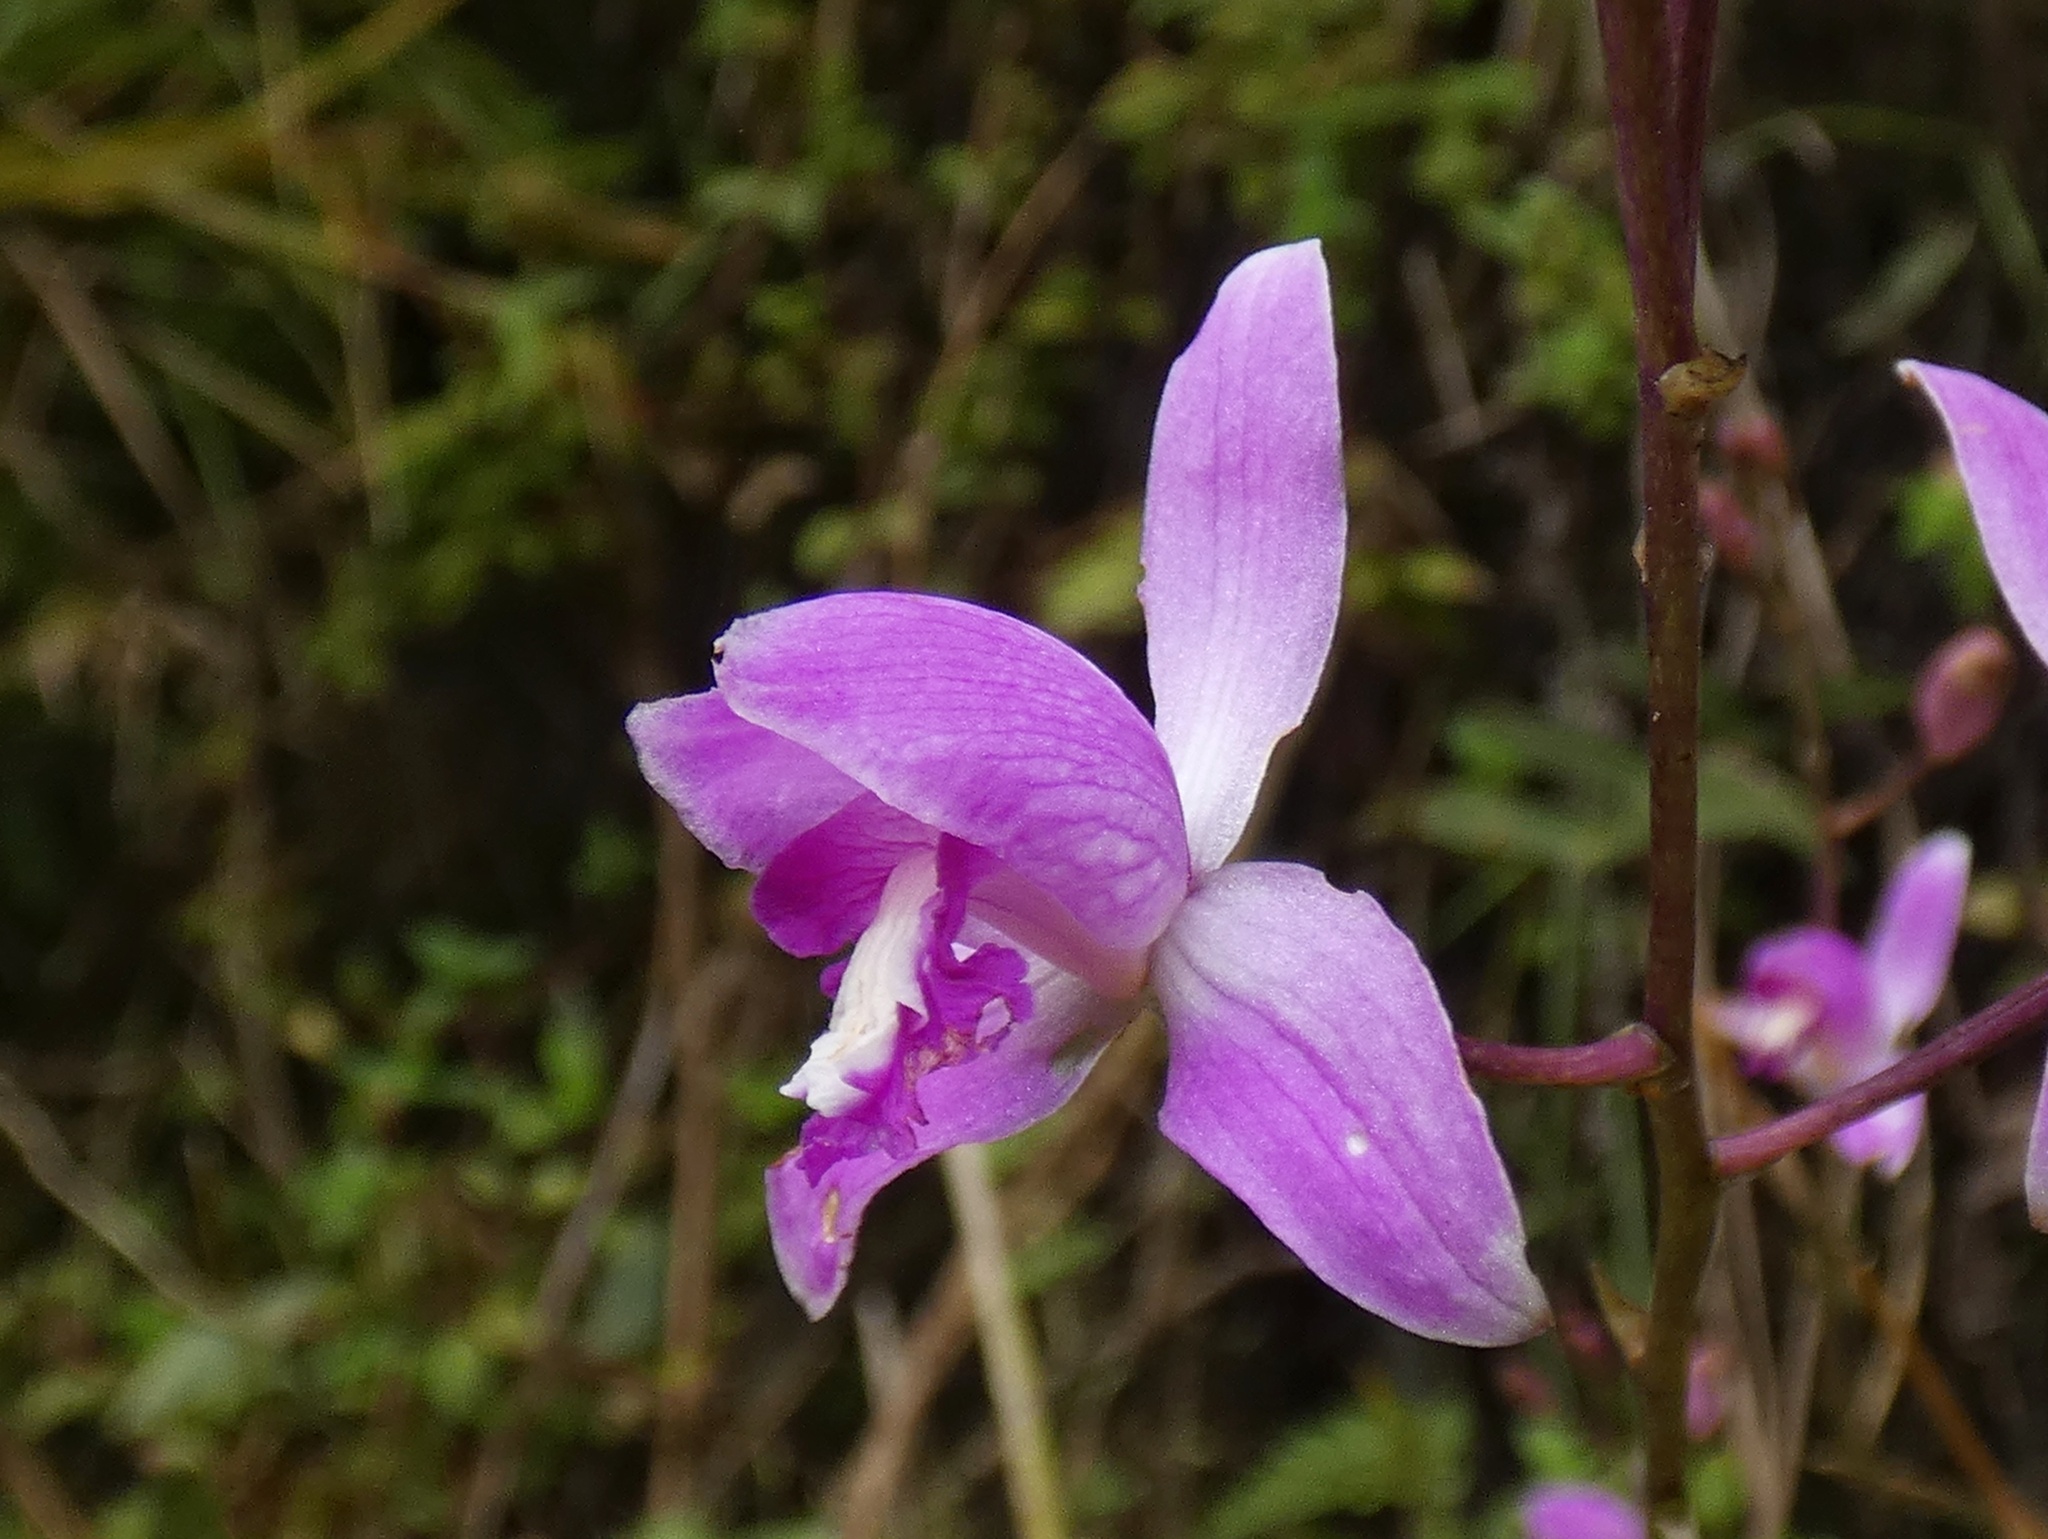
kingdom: Plantae
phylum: Tracheophyta
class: Liliopsida
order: Asparagales
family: Orchidaceae
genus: Bletia
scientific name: Bletia purpurea
